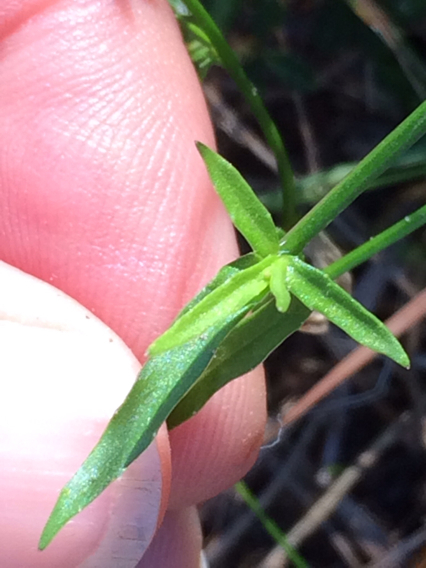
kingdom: Plantae
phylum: Tracheophyta
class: Magnoliopsida
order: Asterales
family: Campanulaceae
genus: Wahlenbergia
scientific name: Wahlenbergia marginata
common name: Southern rockbell
